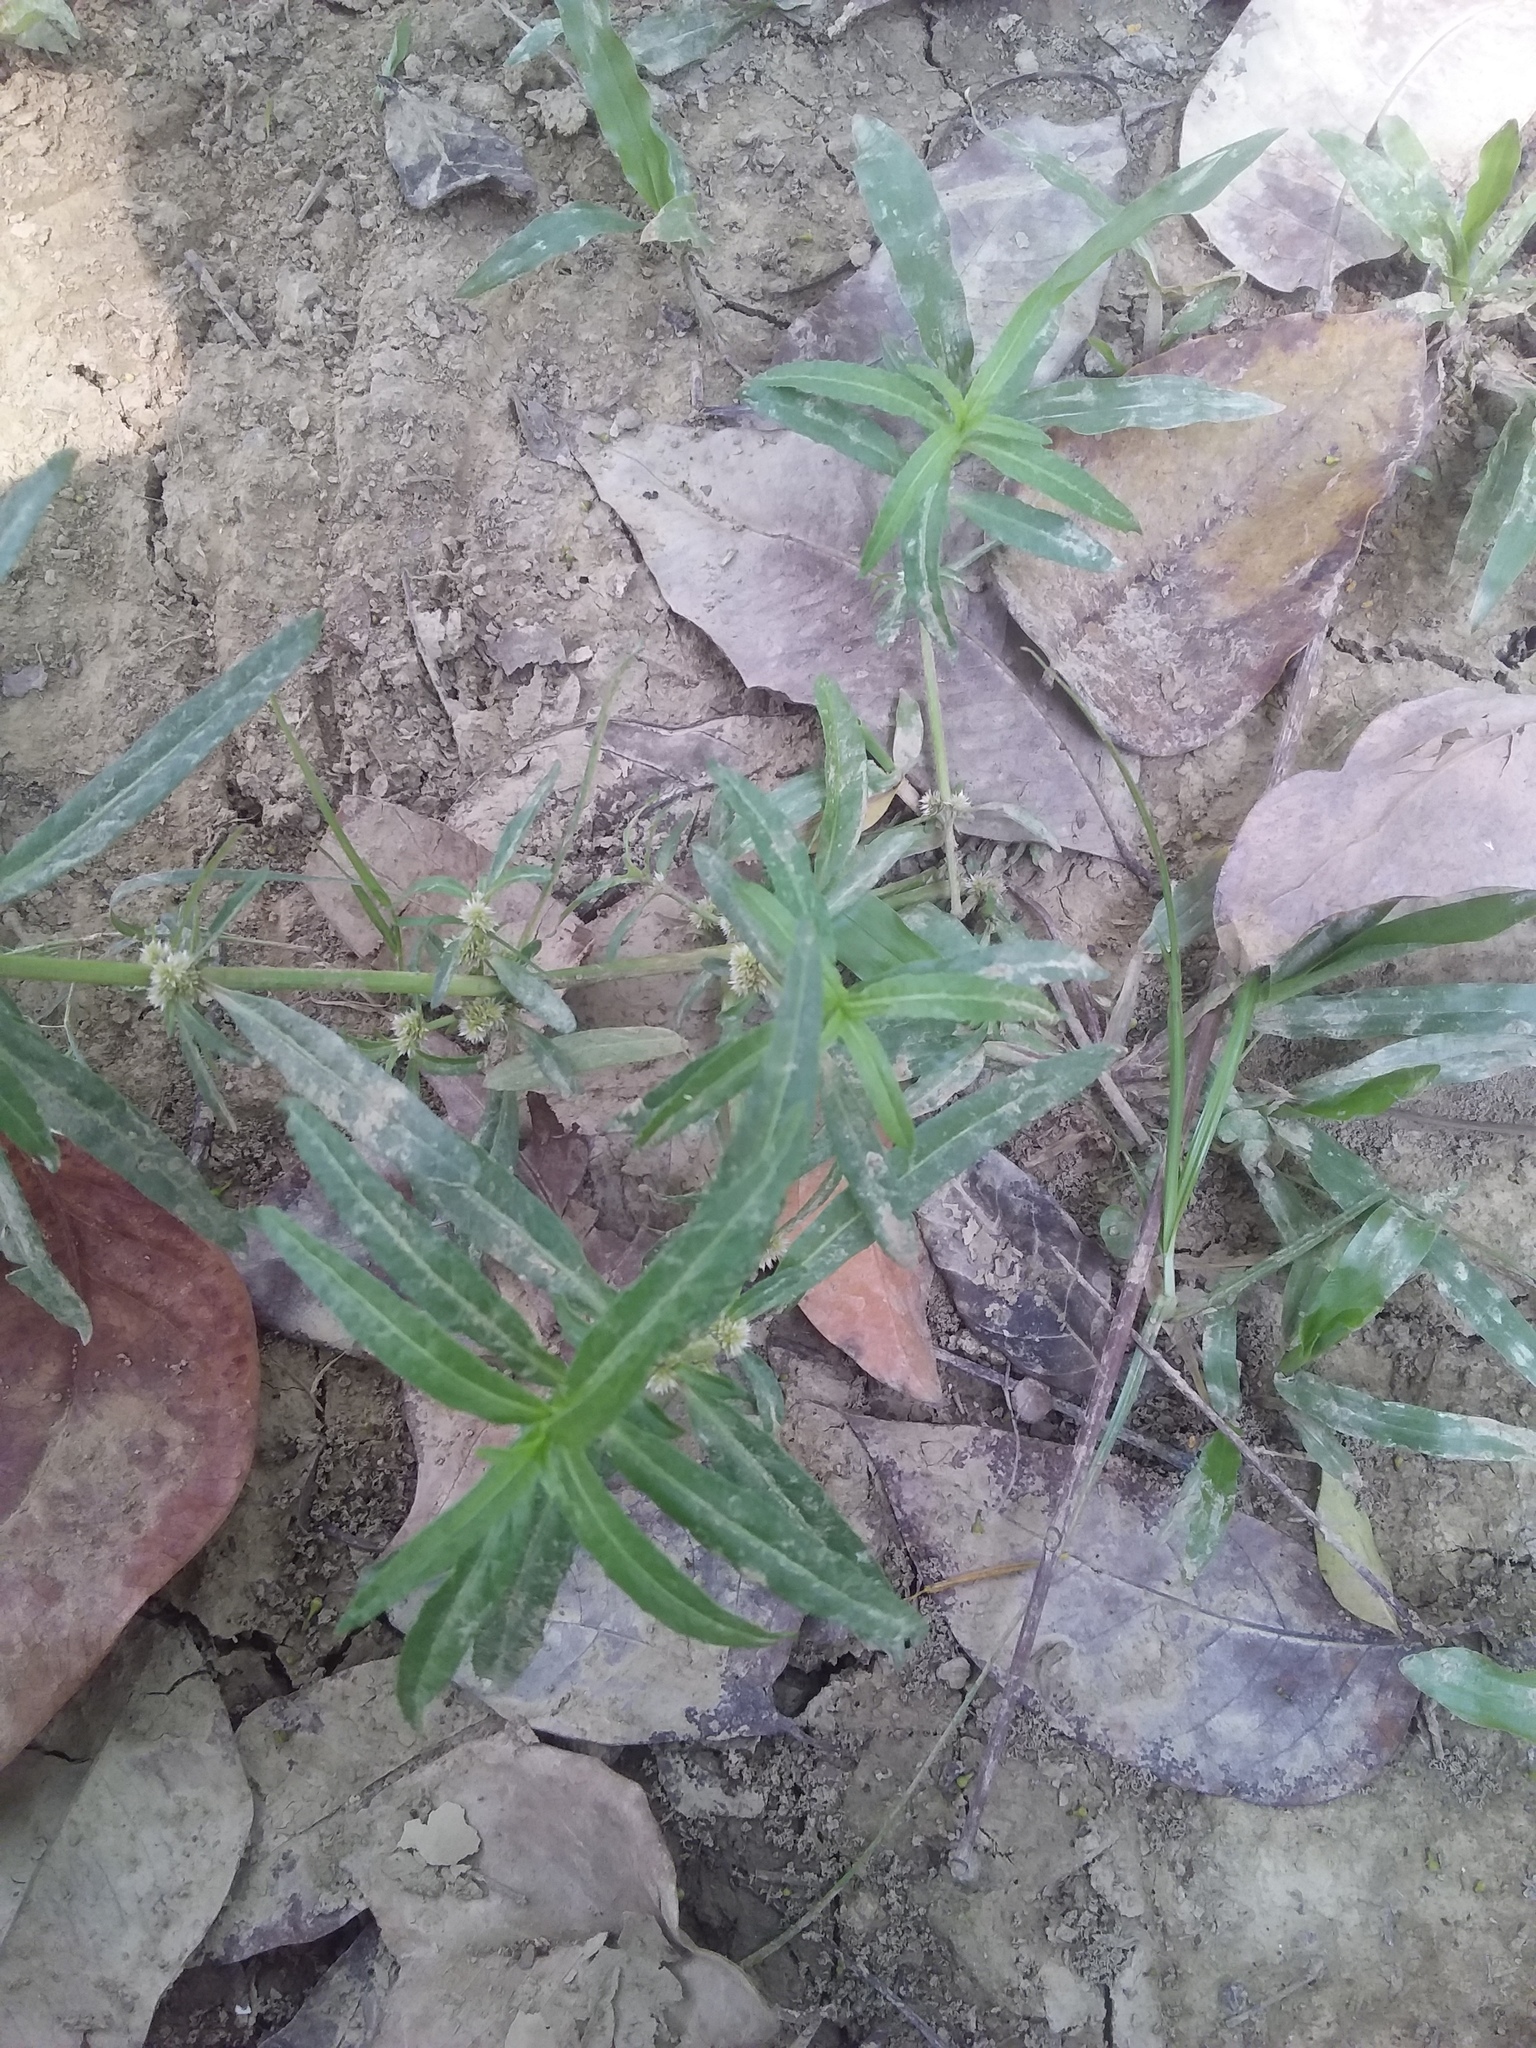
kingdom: Plantae
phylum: Tracheophyta
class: Magnoliopsida
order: Caryophyllales
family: Amaranthaceae
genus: Alternanthera
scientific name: Alternanthera sessilis
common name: Sessile joyweed
